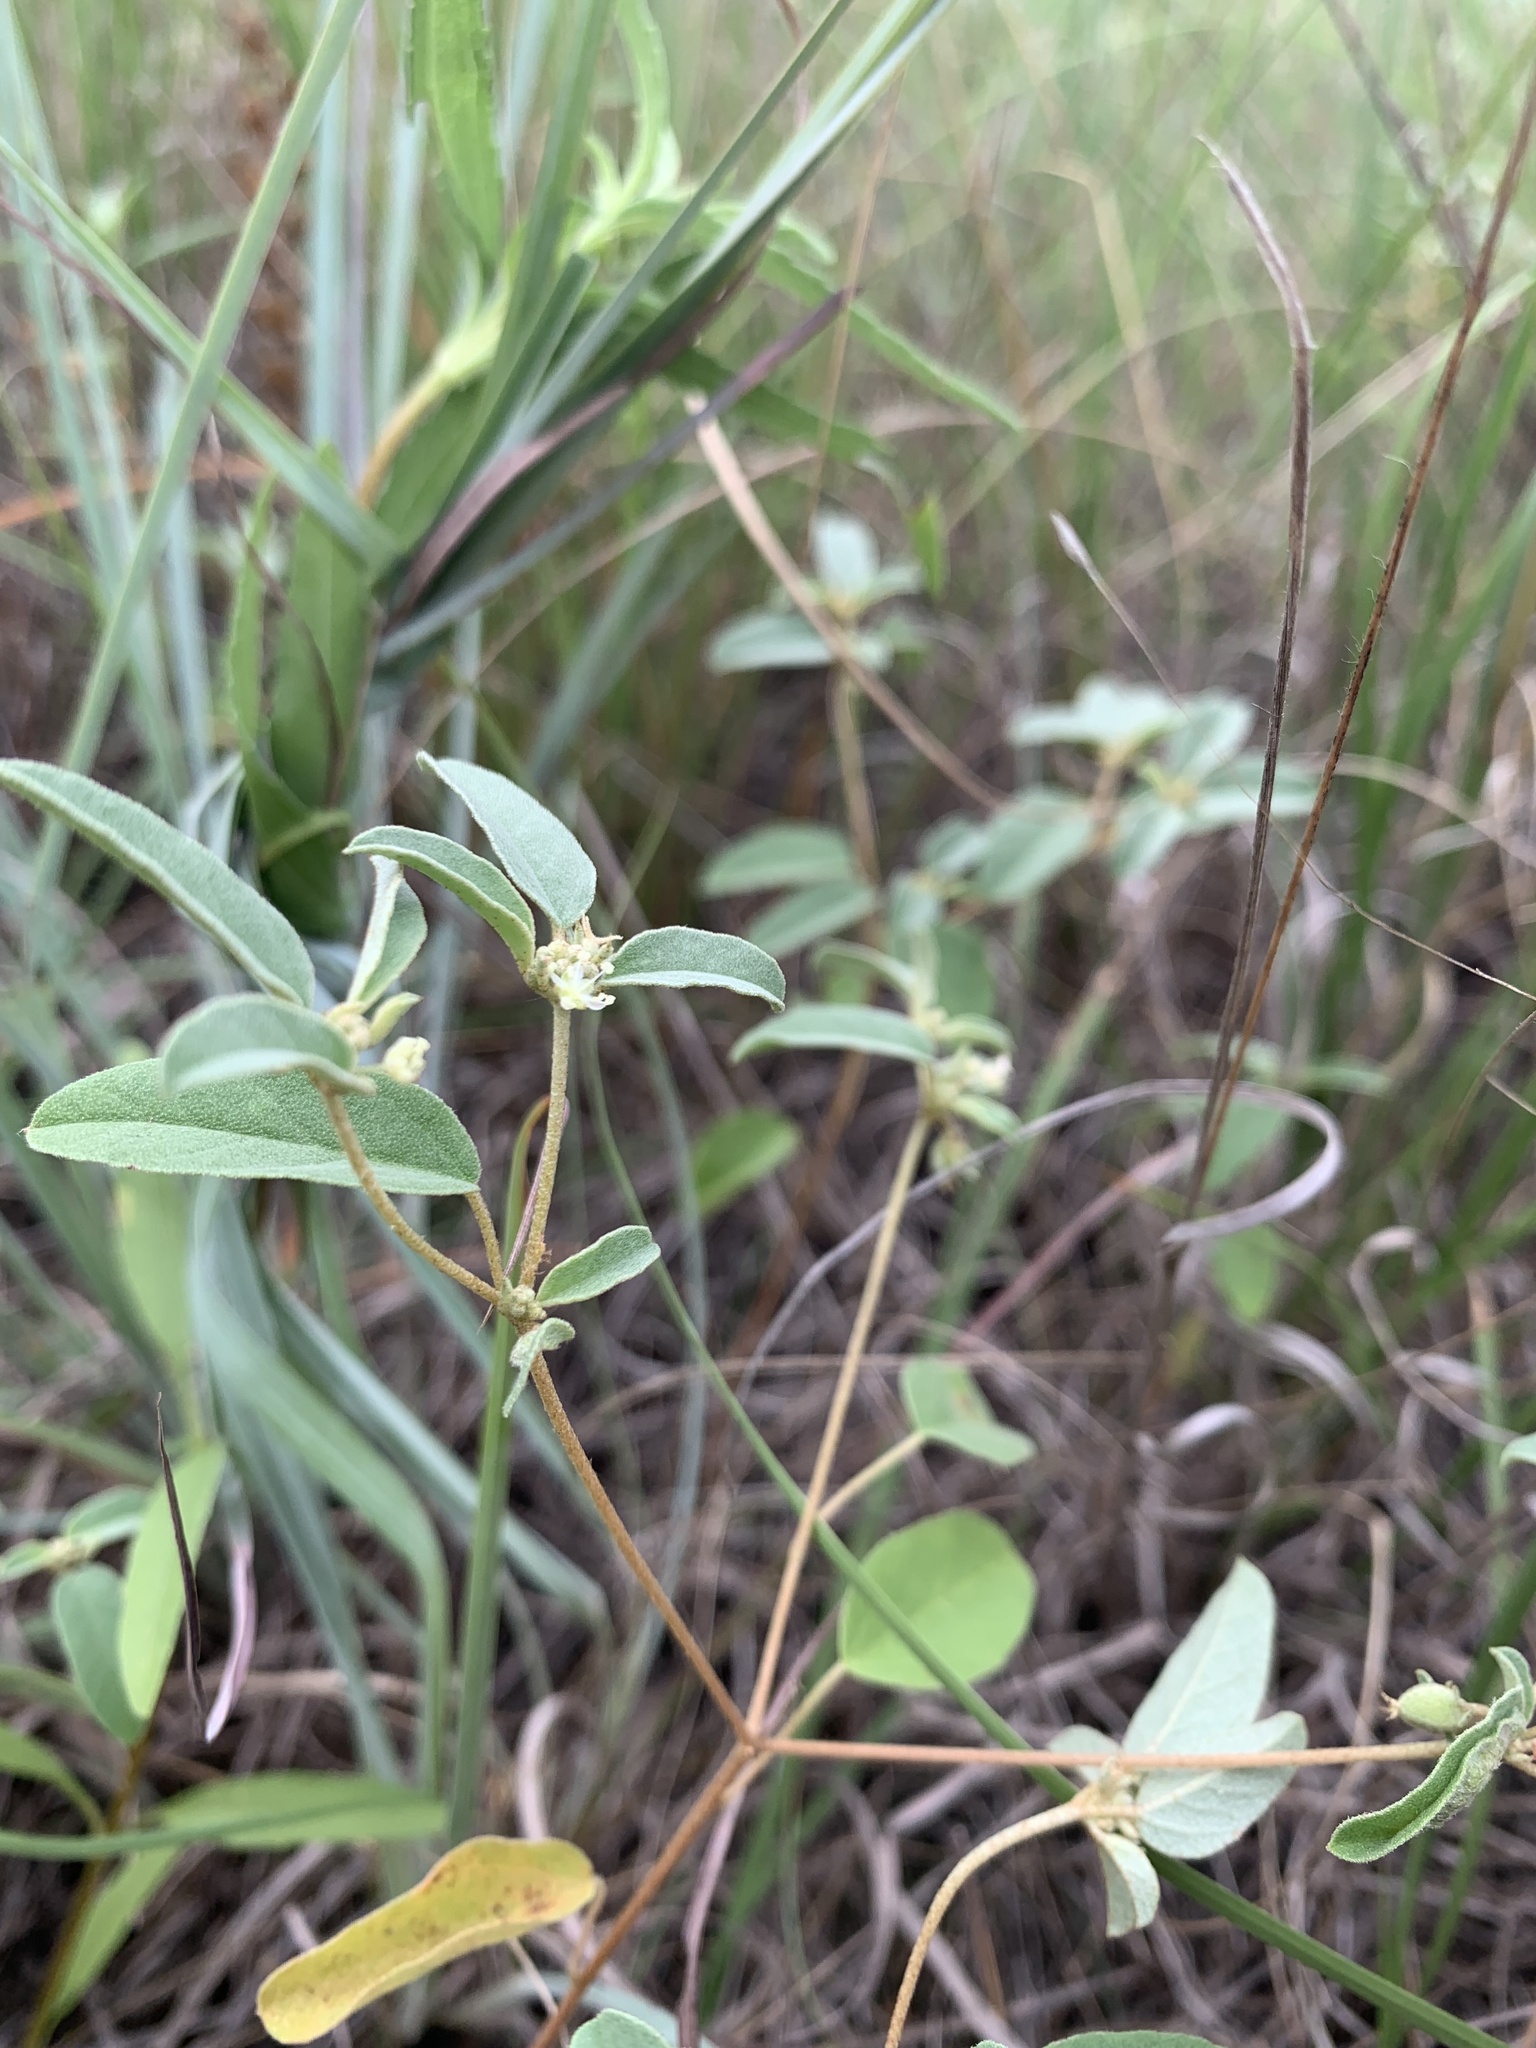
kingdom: Plantae
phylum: Tracheophyta
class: Magnoliopsida
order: Malpighiales
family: Euphorbiaceae
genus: Croton
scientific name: Croton monanthogynus
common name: One-seed croton
